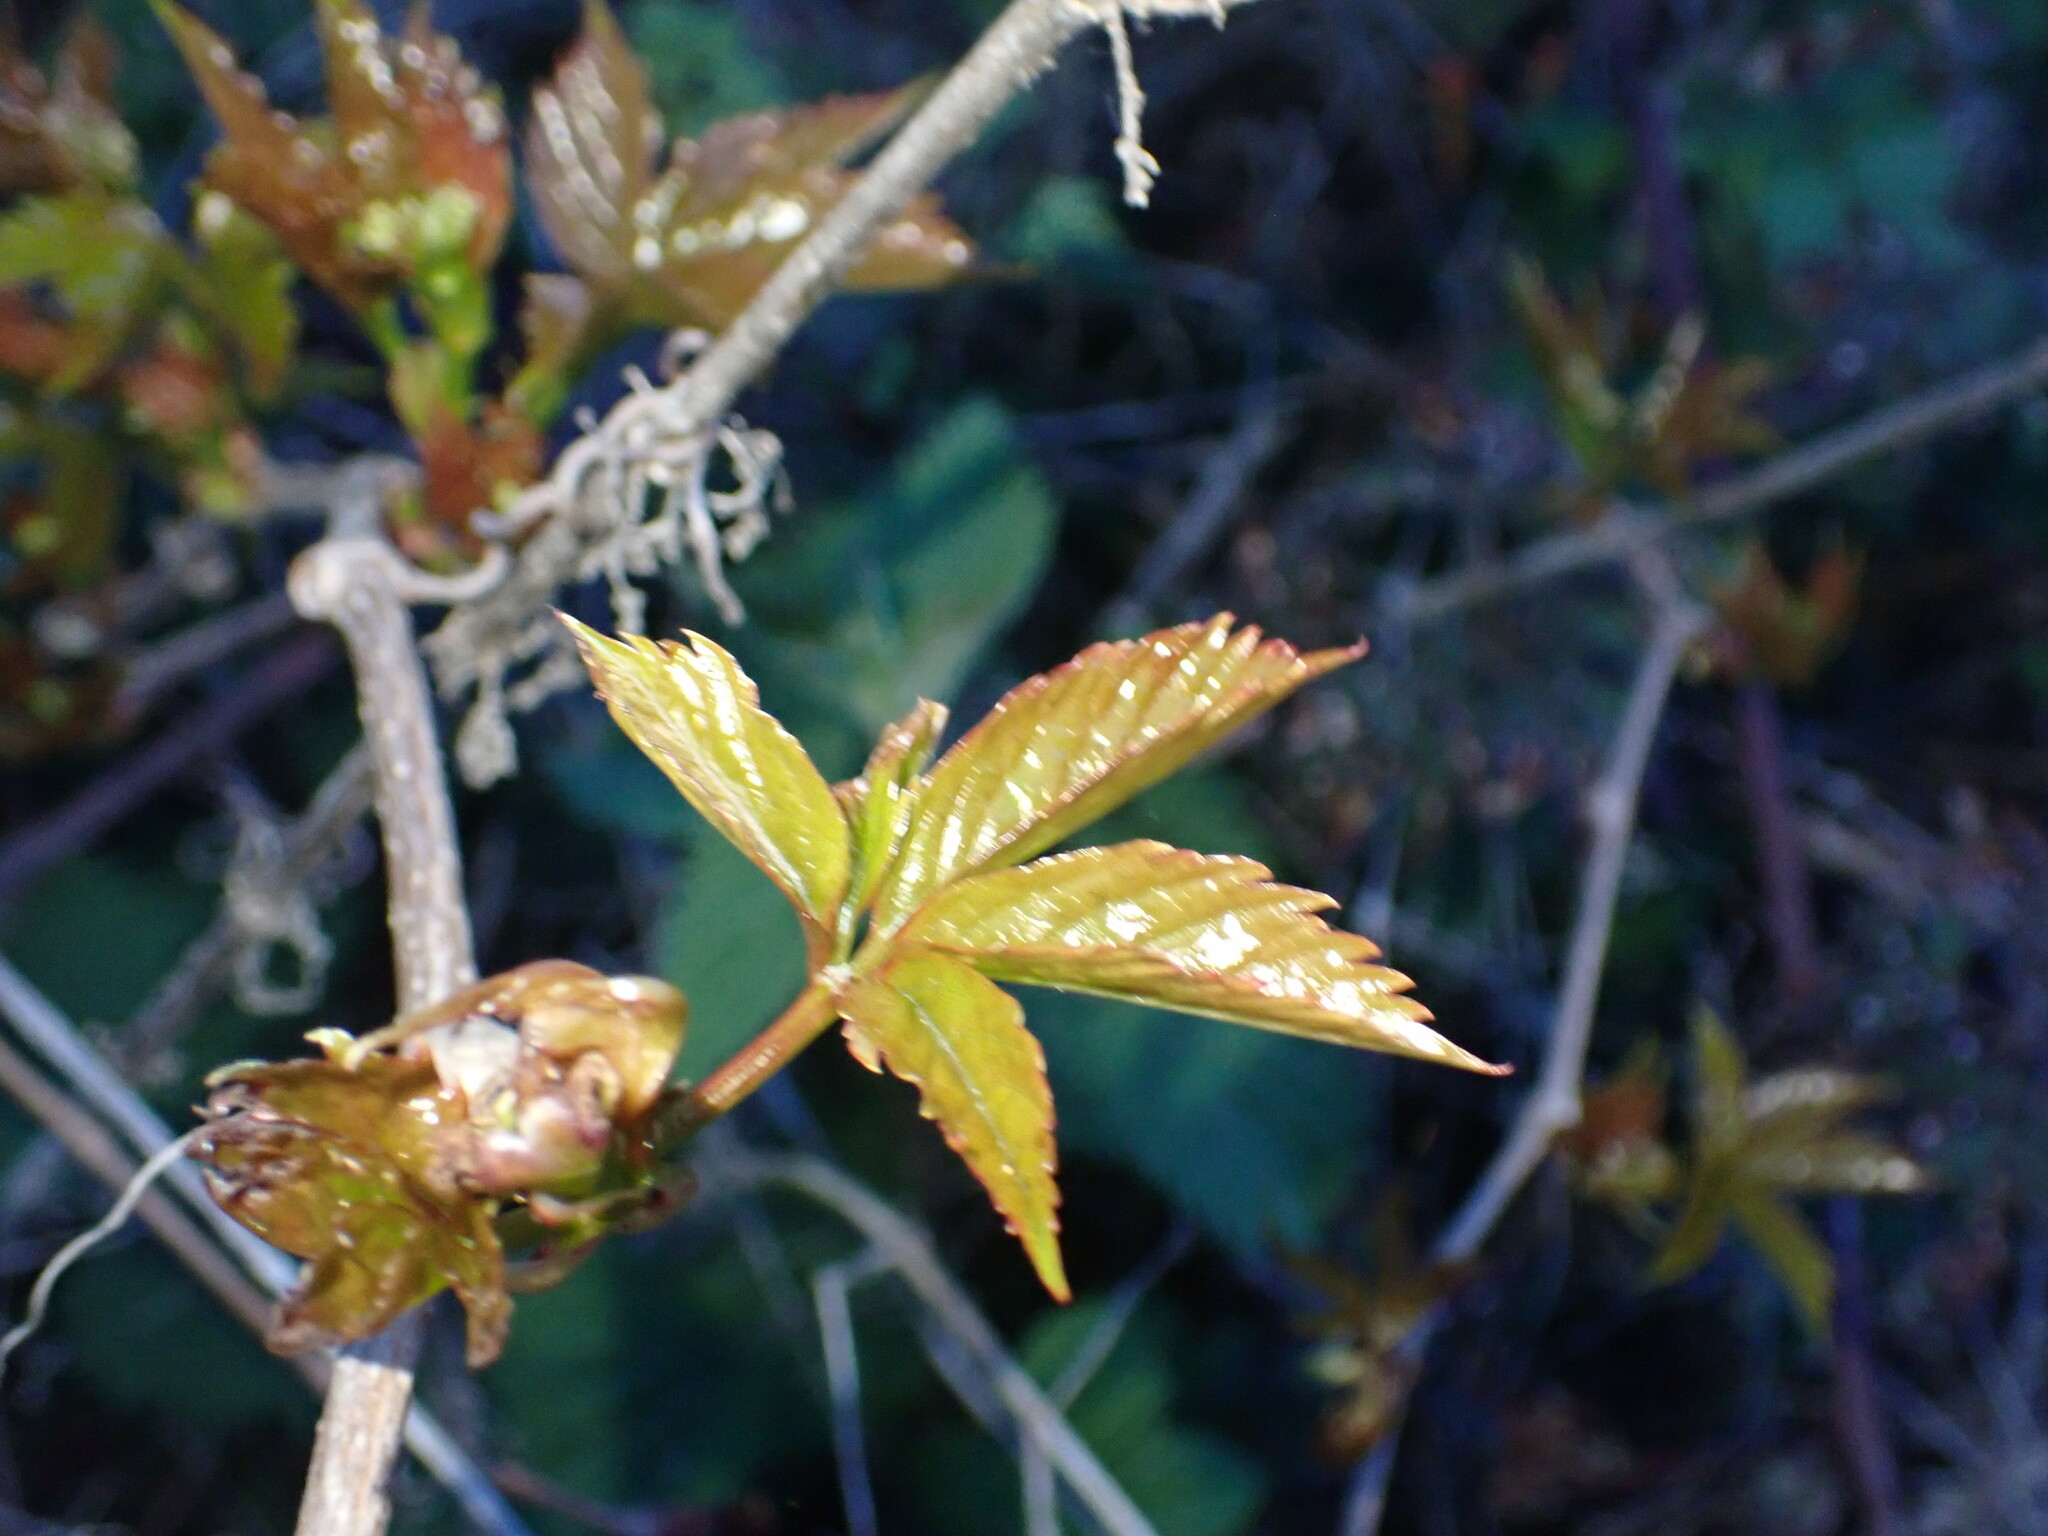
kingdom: Plantae
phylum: Tracheophyta
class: Magnoliopsida
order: Vitales
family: Vitaceae
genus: Parthenocissus
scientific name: Parthenocissus quinquefolia
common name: Virginia-creeper
